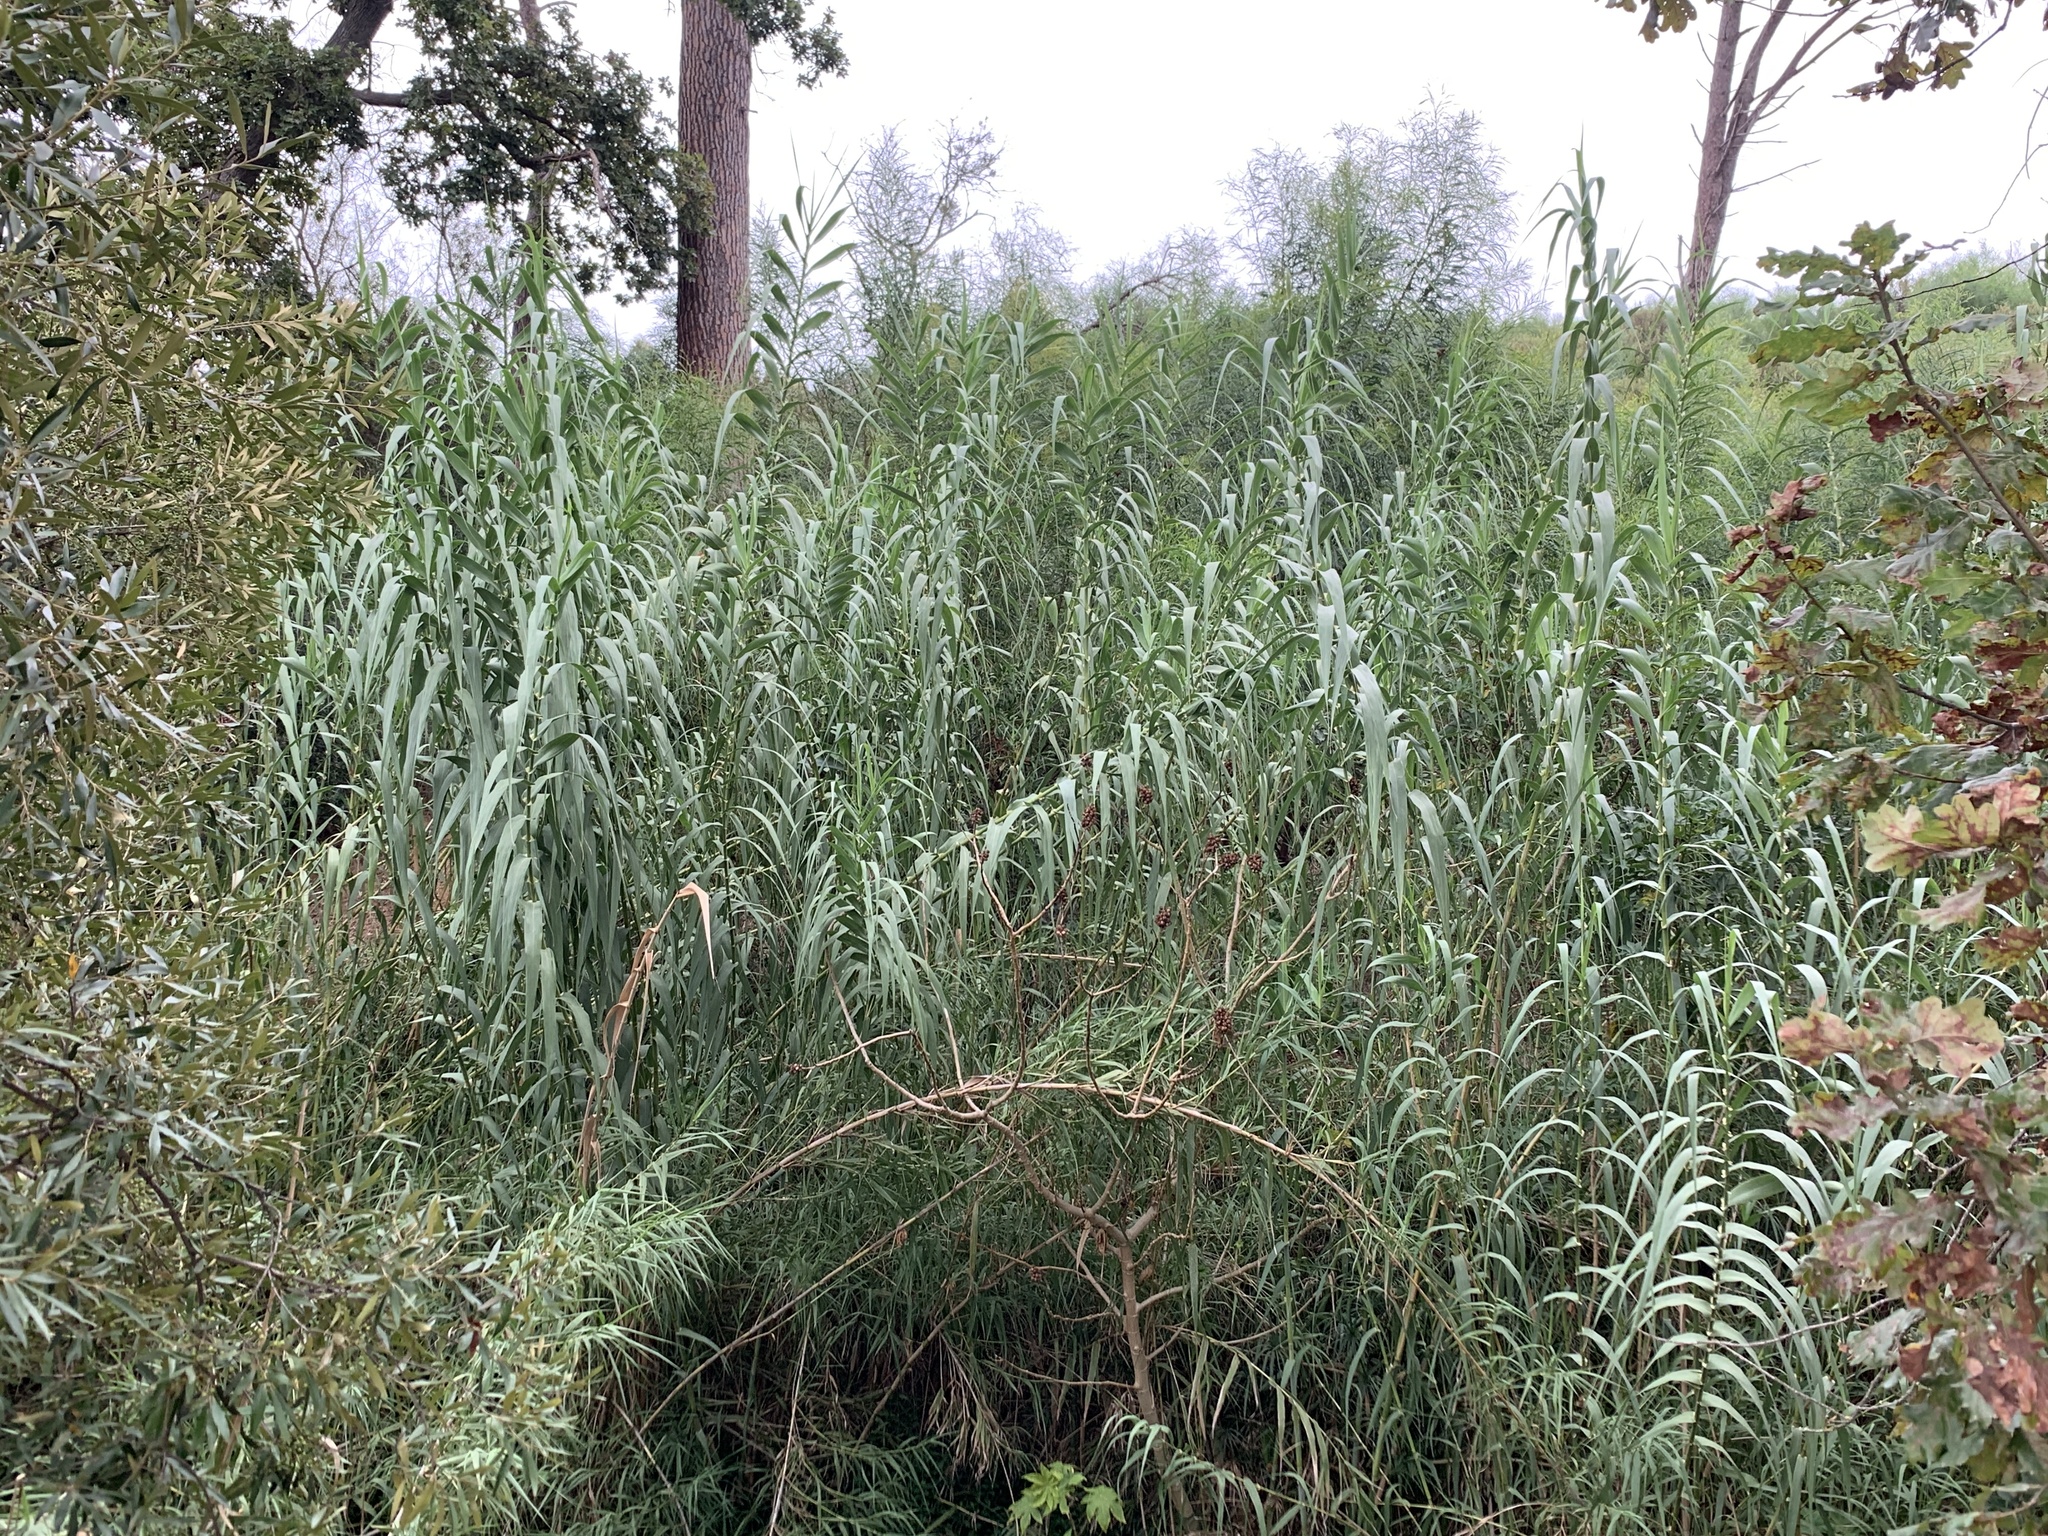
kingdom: Plantae
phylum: Tracheophyta
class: Liliopsida
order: Poales
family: Poaceae
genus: Arundo
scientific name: Arundo donax
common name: Giant reed
